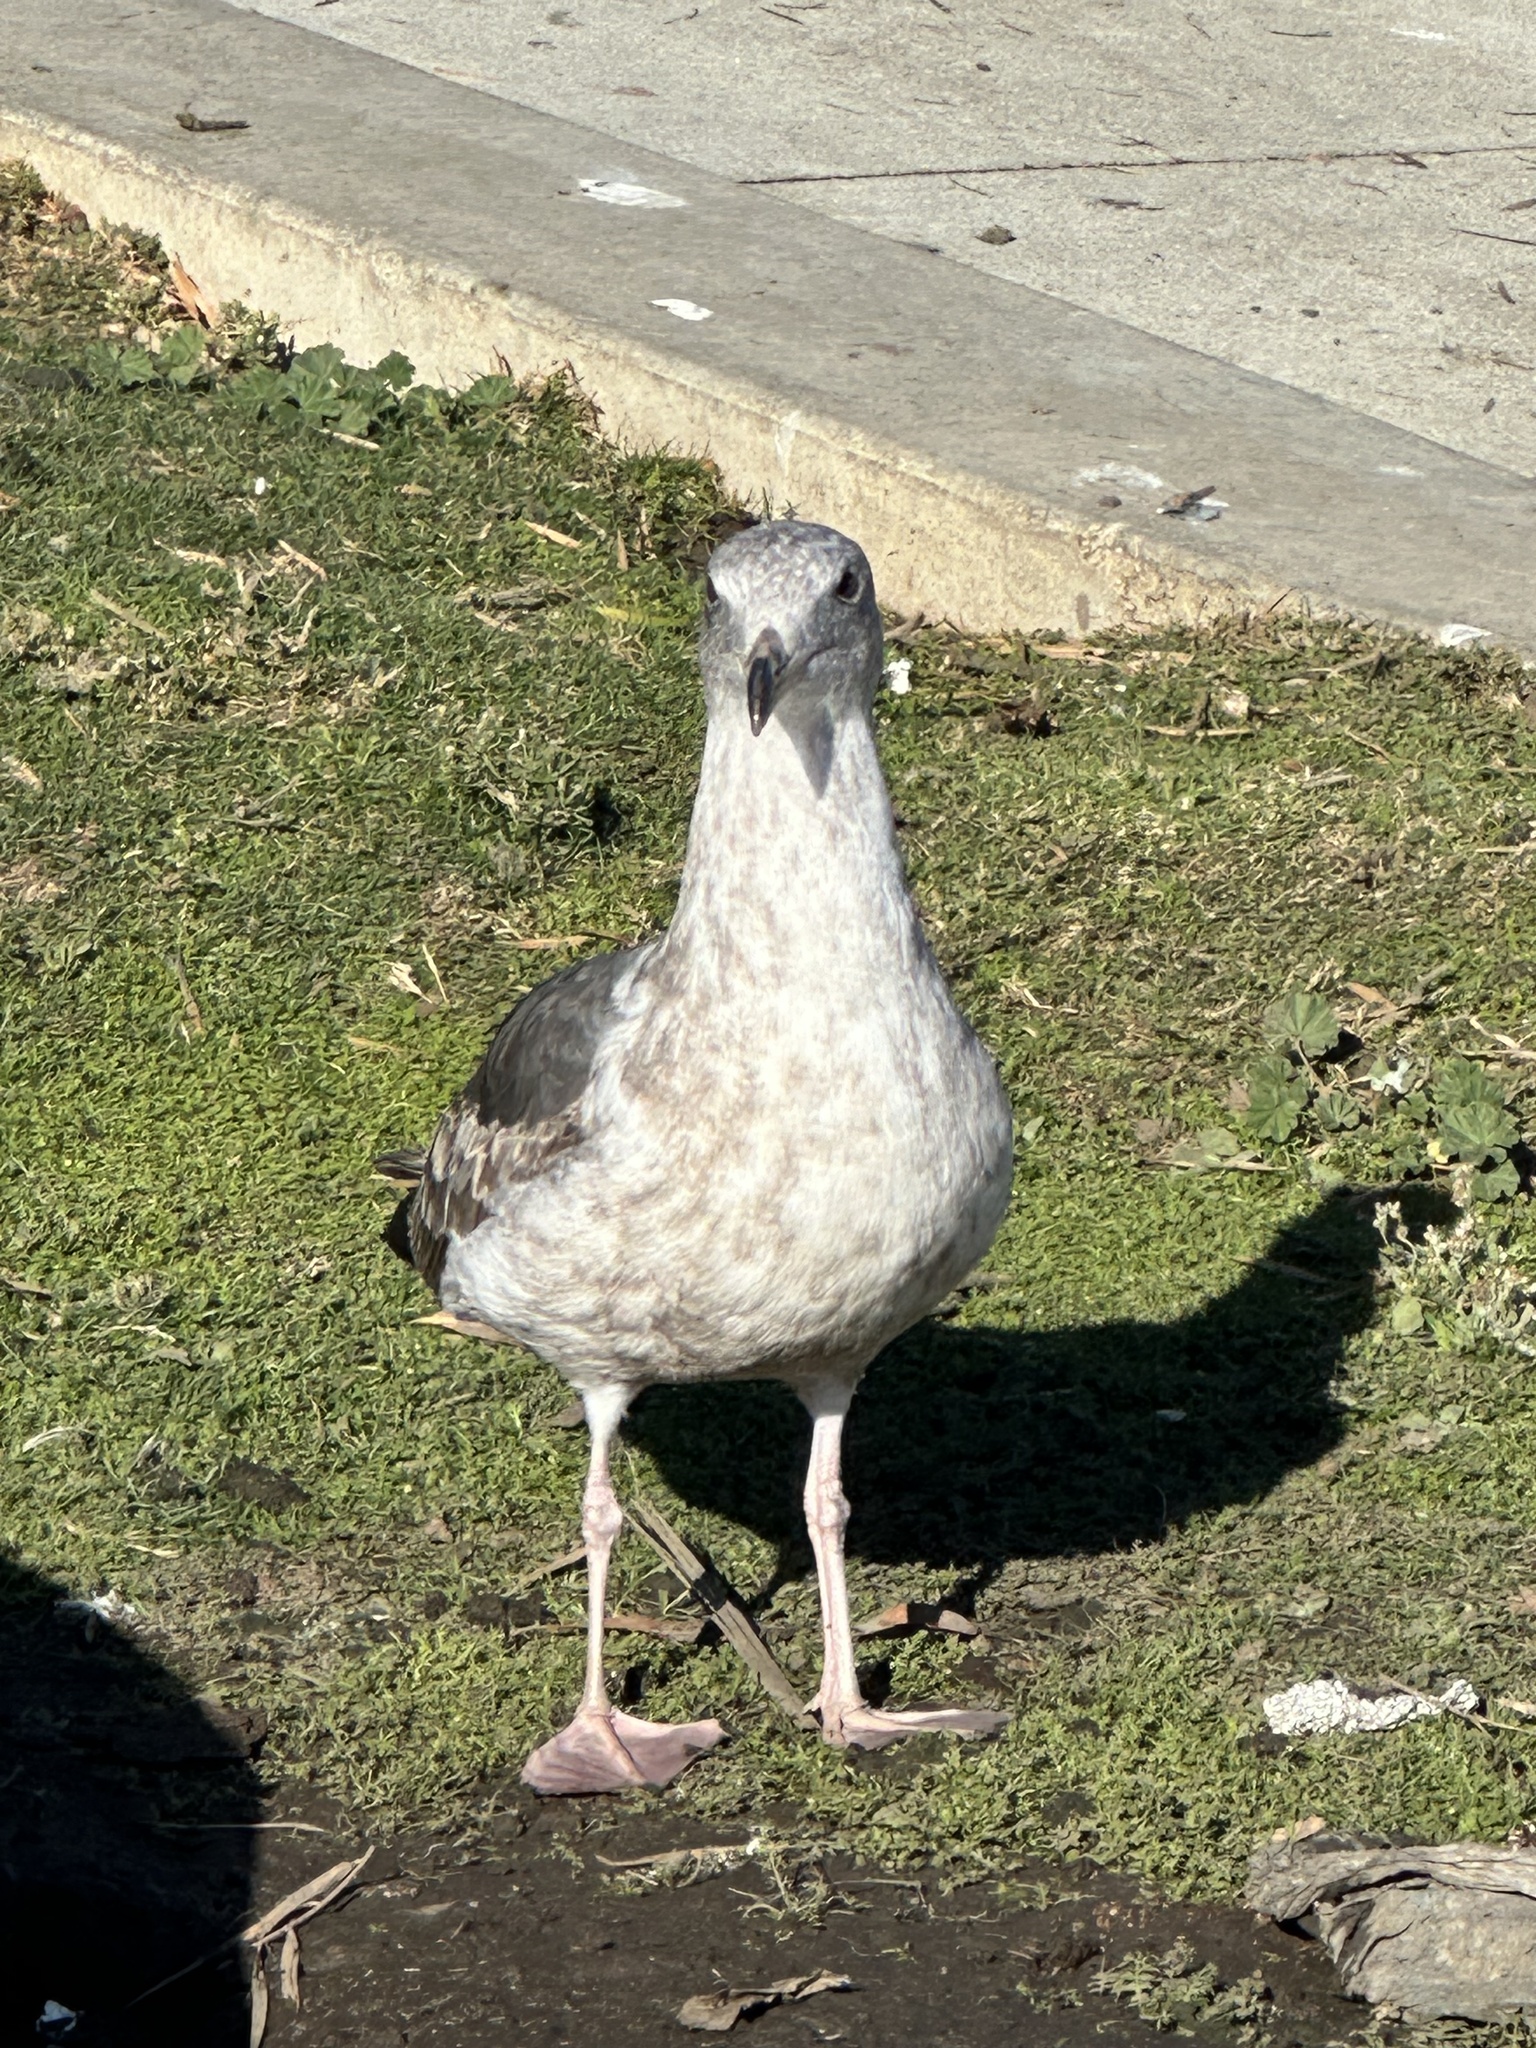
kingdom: Animalia
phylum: Chordata
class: Aves
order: Charadriiformes
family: Laridae
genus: Larus
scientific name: Larus occidentalis
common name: Western gull
